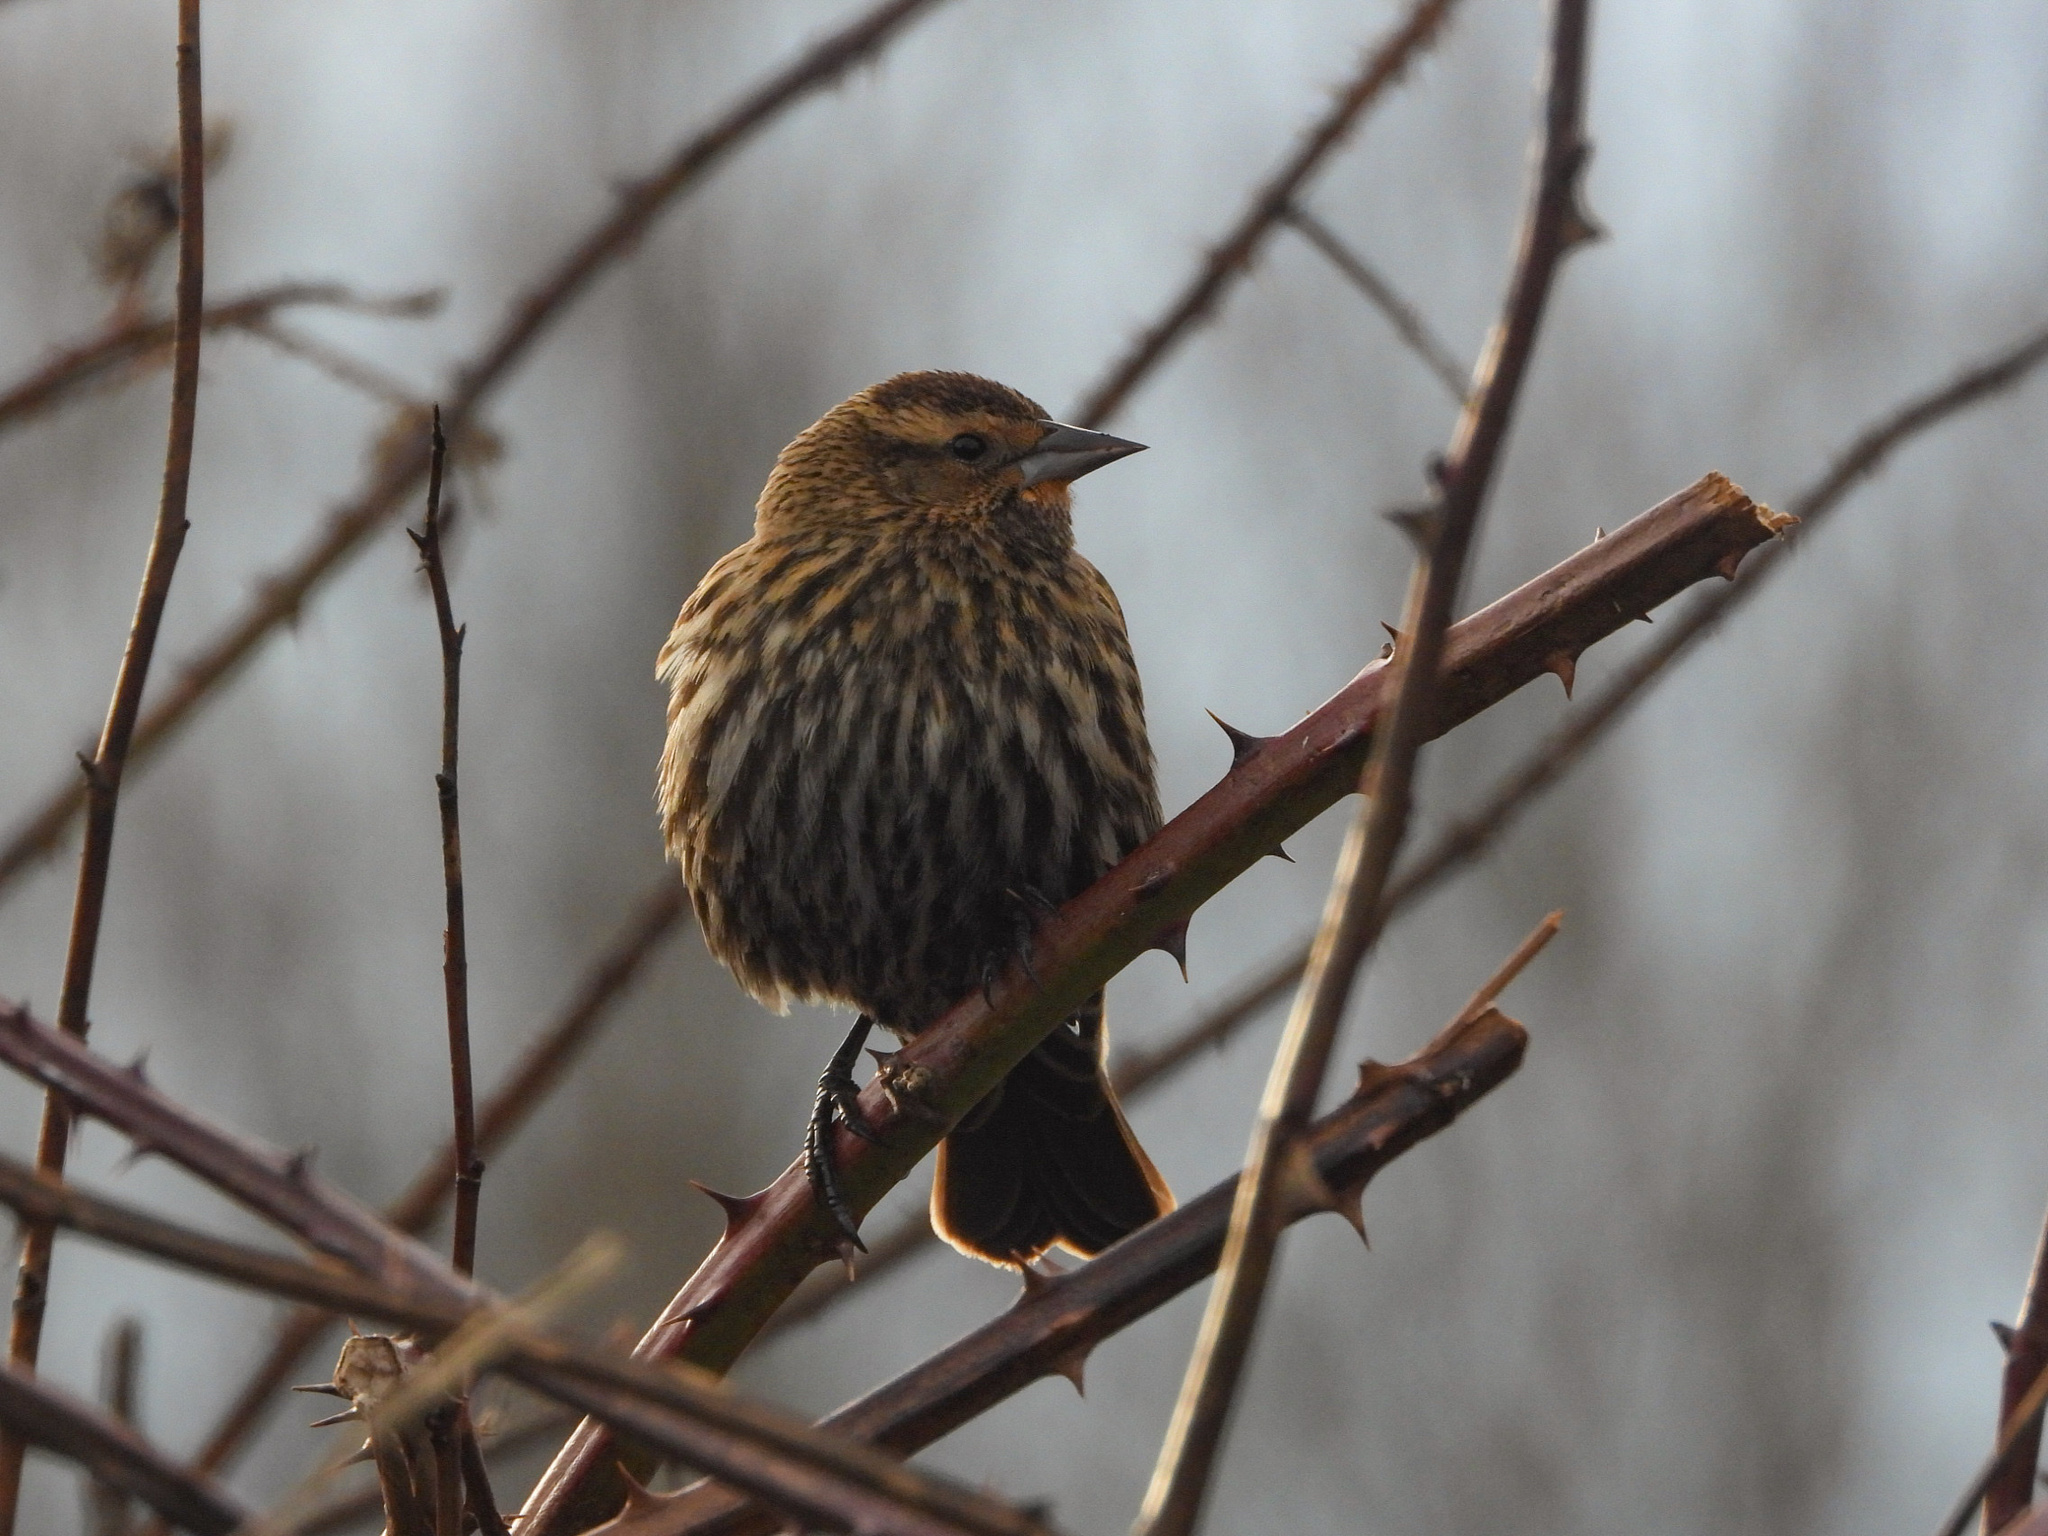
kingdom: Animalia
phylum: Chordata
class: Aves
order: Passeriformes
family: Icteridae
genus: Agelaius
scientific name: Agelaius phoeniceus
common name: Red-winged blackbird
